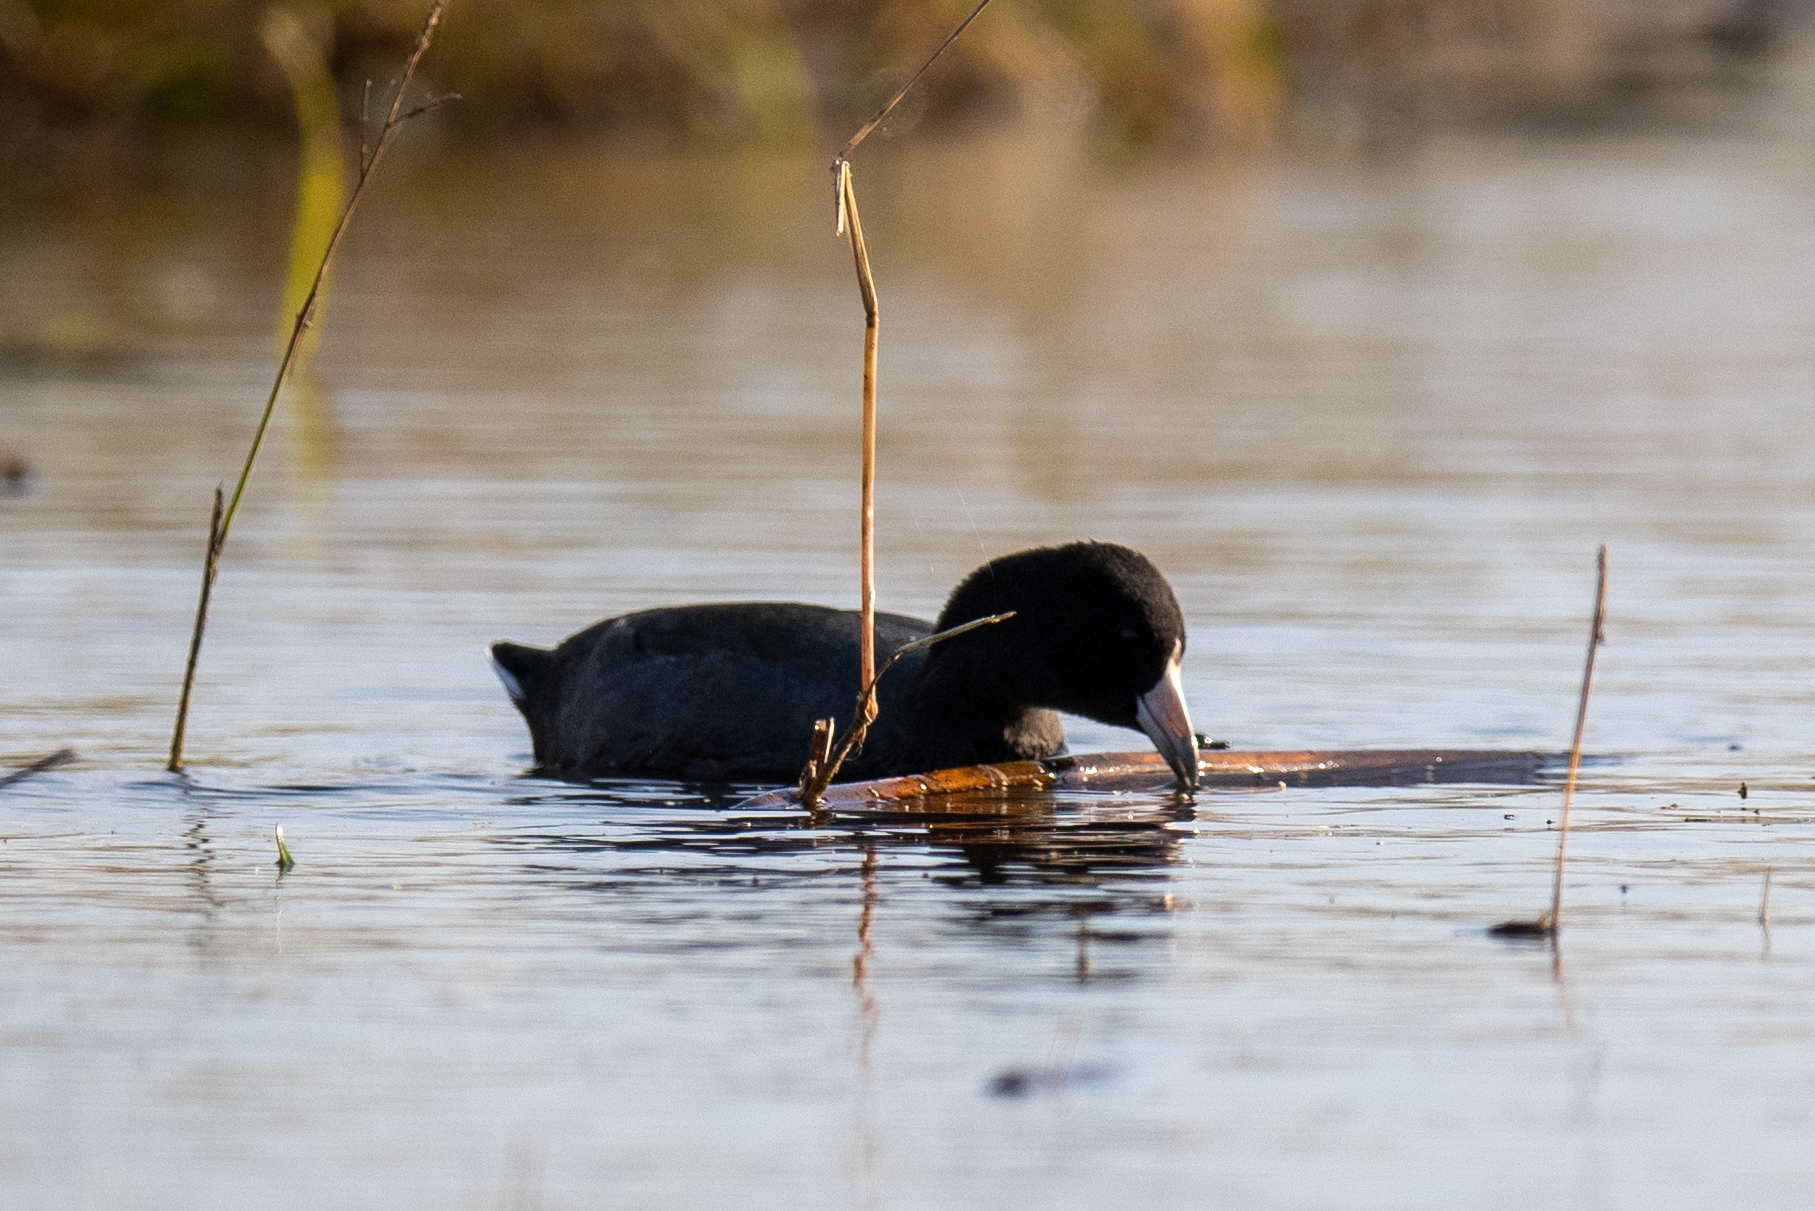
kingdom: Animalia
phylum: Chordata
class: Aves
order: Gruiformes
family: Rallidae
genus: Fulica
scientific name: Fulica americana
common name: American coot
